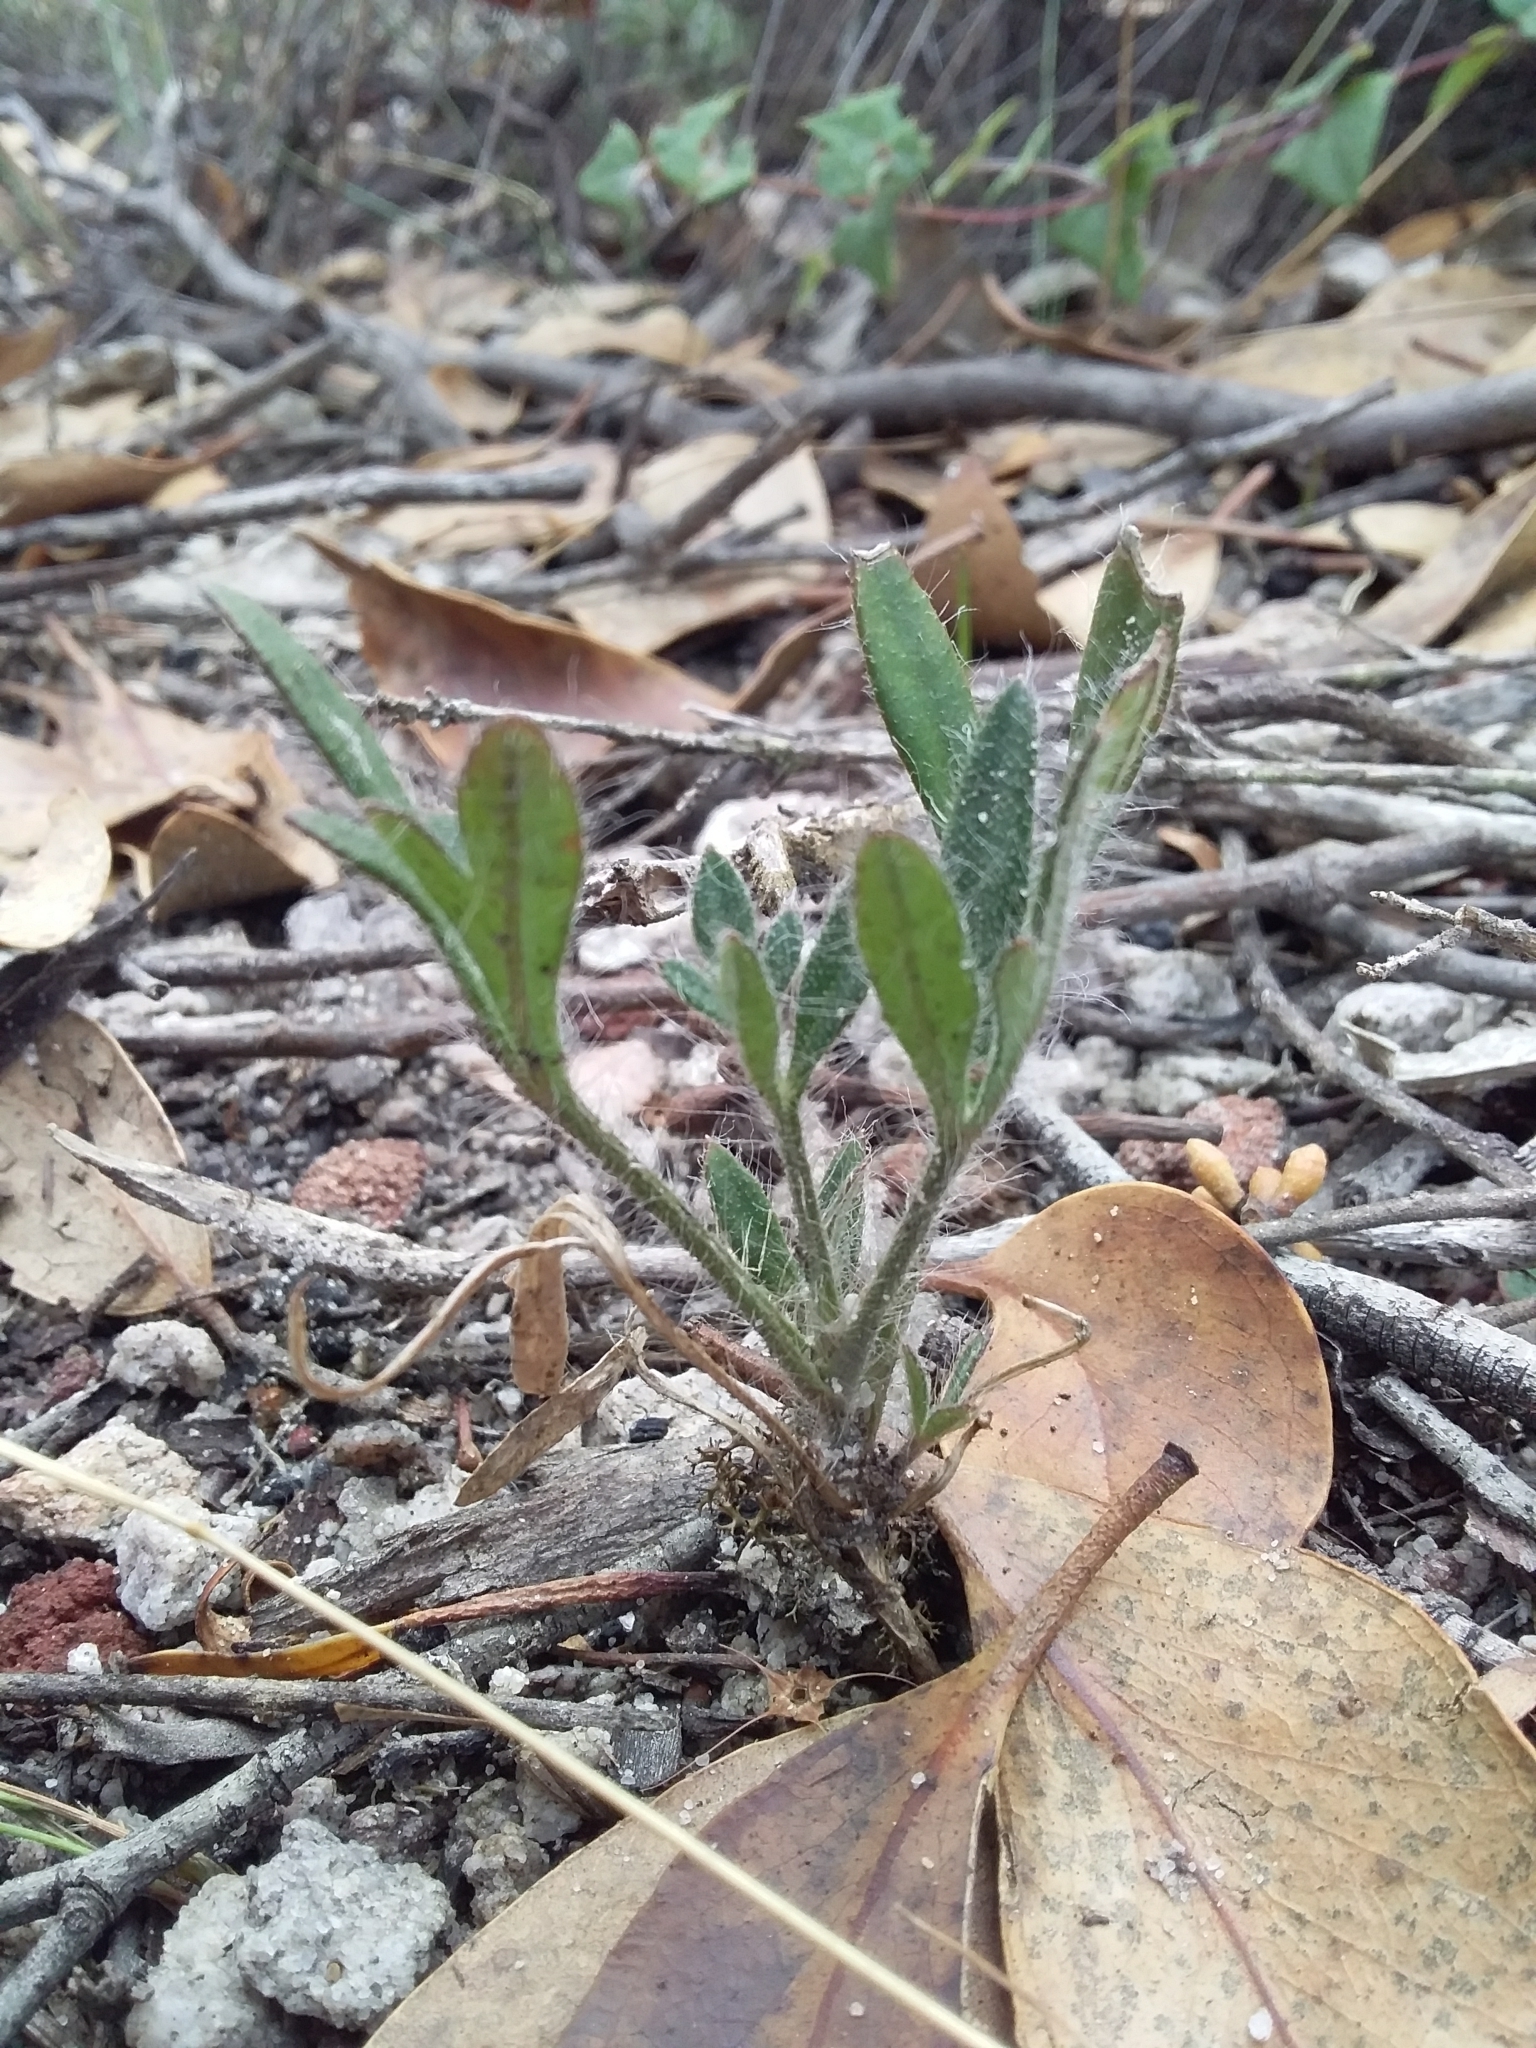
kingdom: Plantae
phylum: Tracheophyta
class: Magnoliopsida
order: Apiales
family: Apiaceae
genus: Xanthosia
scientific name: Xanthosia huegelii
